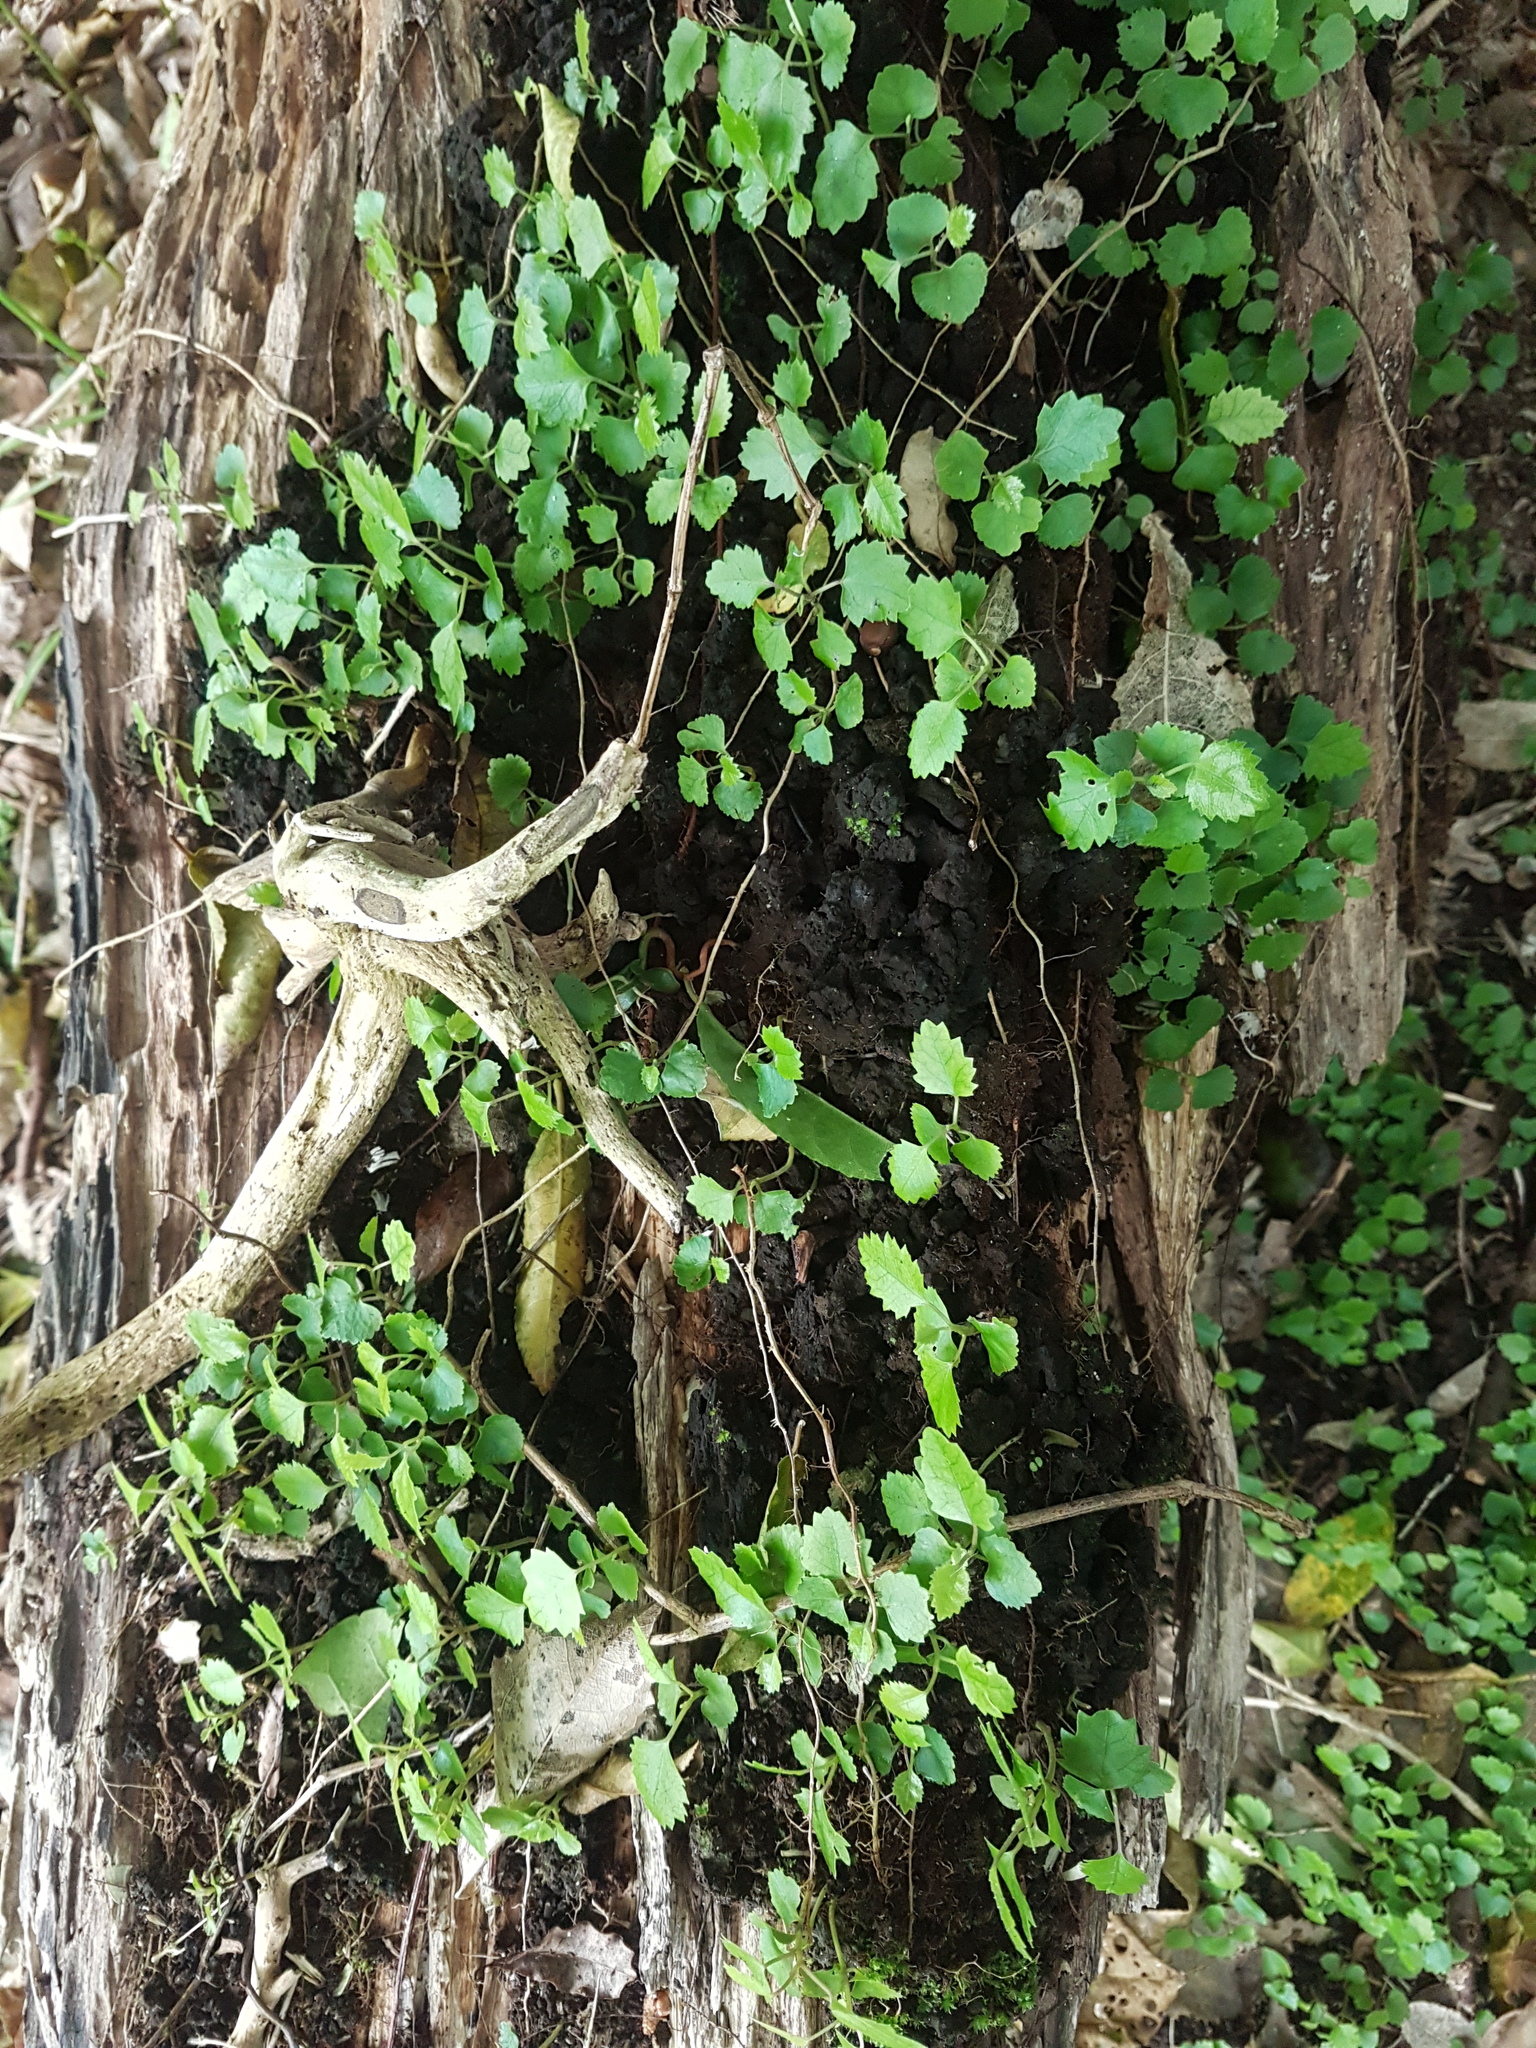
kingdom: Plantae
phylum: Tracheophyta
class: Magnoliopsida
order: Malvales
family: Malvaceae
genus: Hoheria
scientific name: Hoheria sexstylosa
